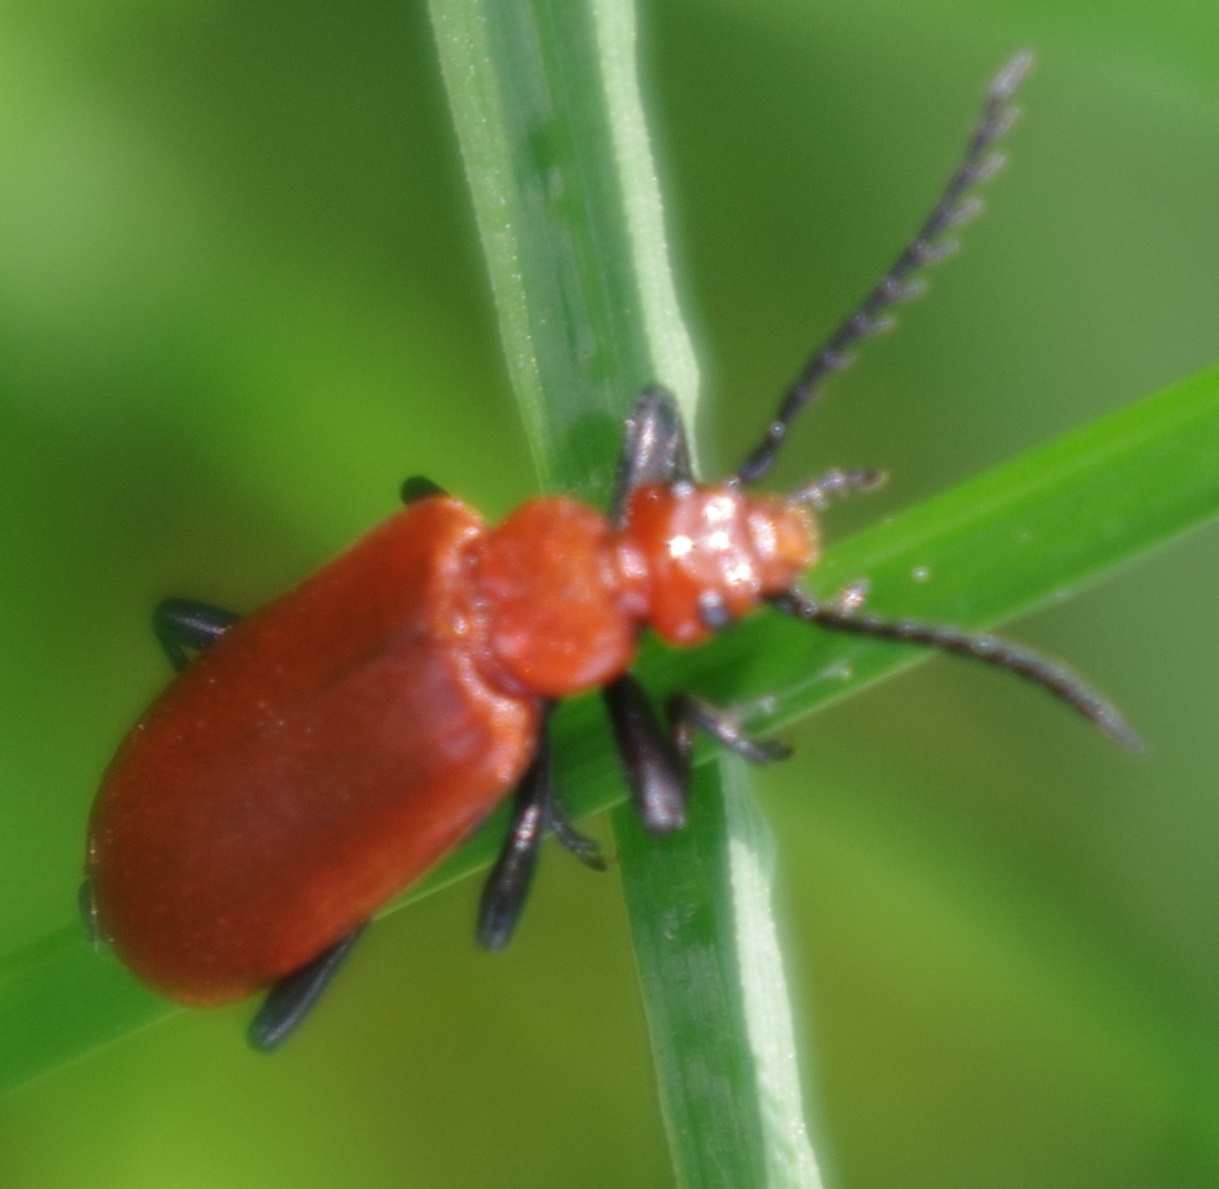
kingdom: Animalia
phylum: Arthropoda
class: Insecta
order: Coleoptera
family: Pyrochroidae
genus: Pyrochroa
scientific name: Pyrochroa serraticornis
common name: Red-headed cardinal beetle
